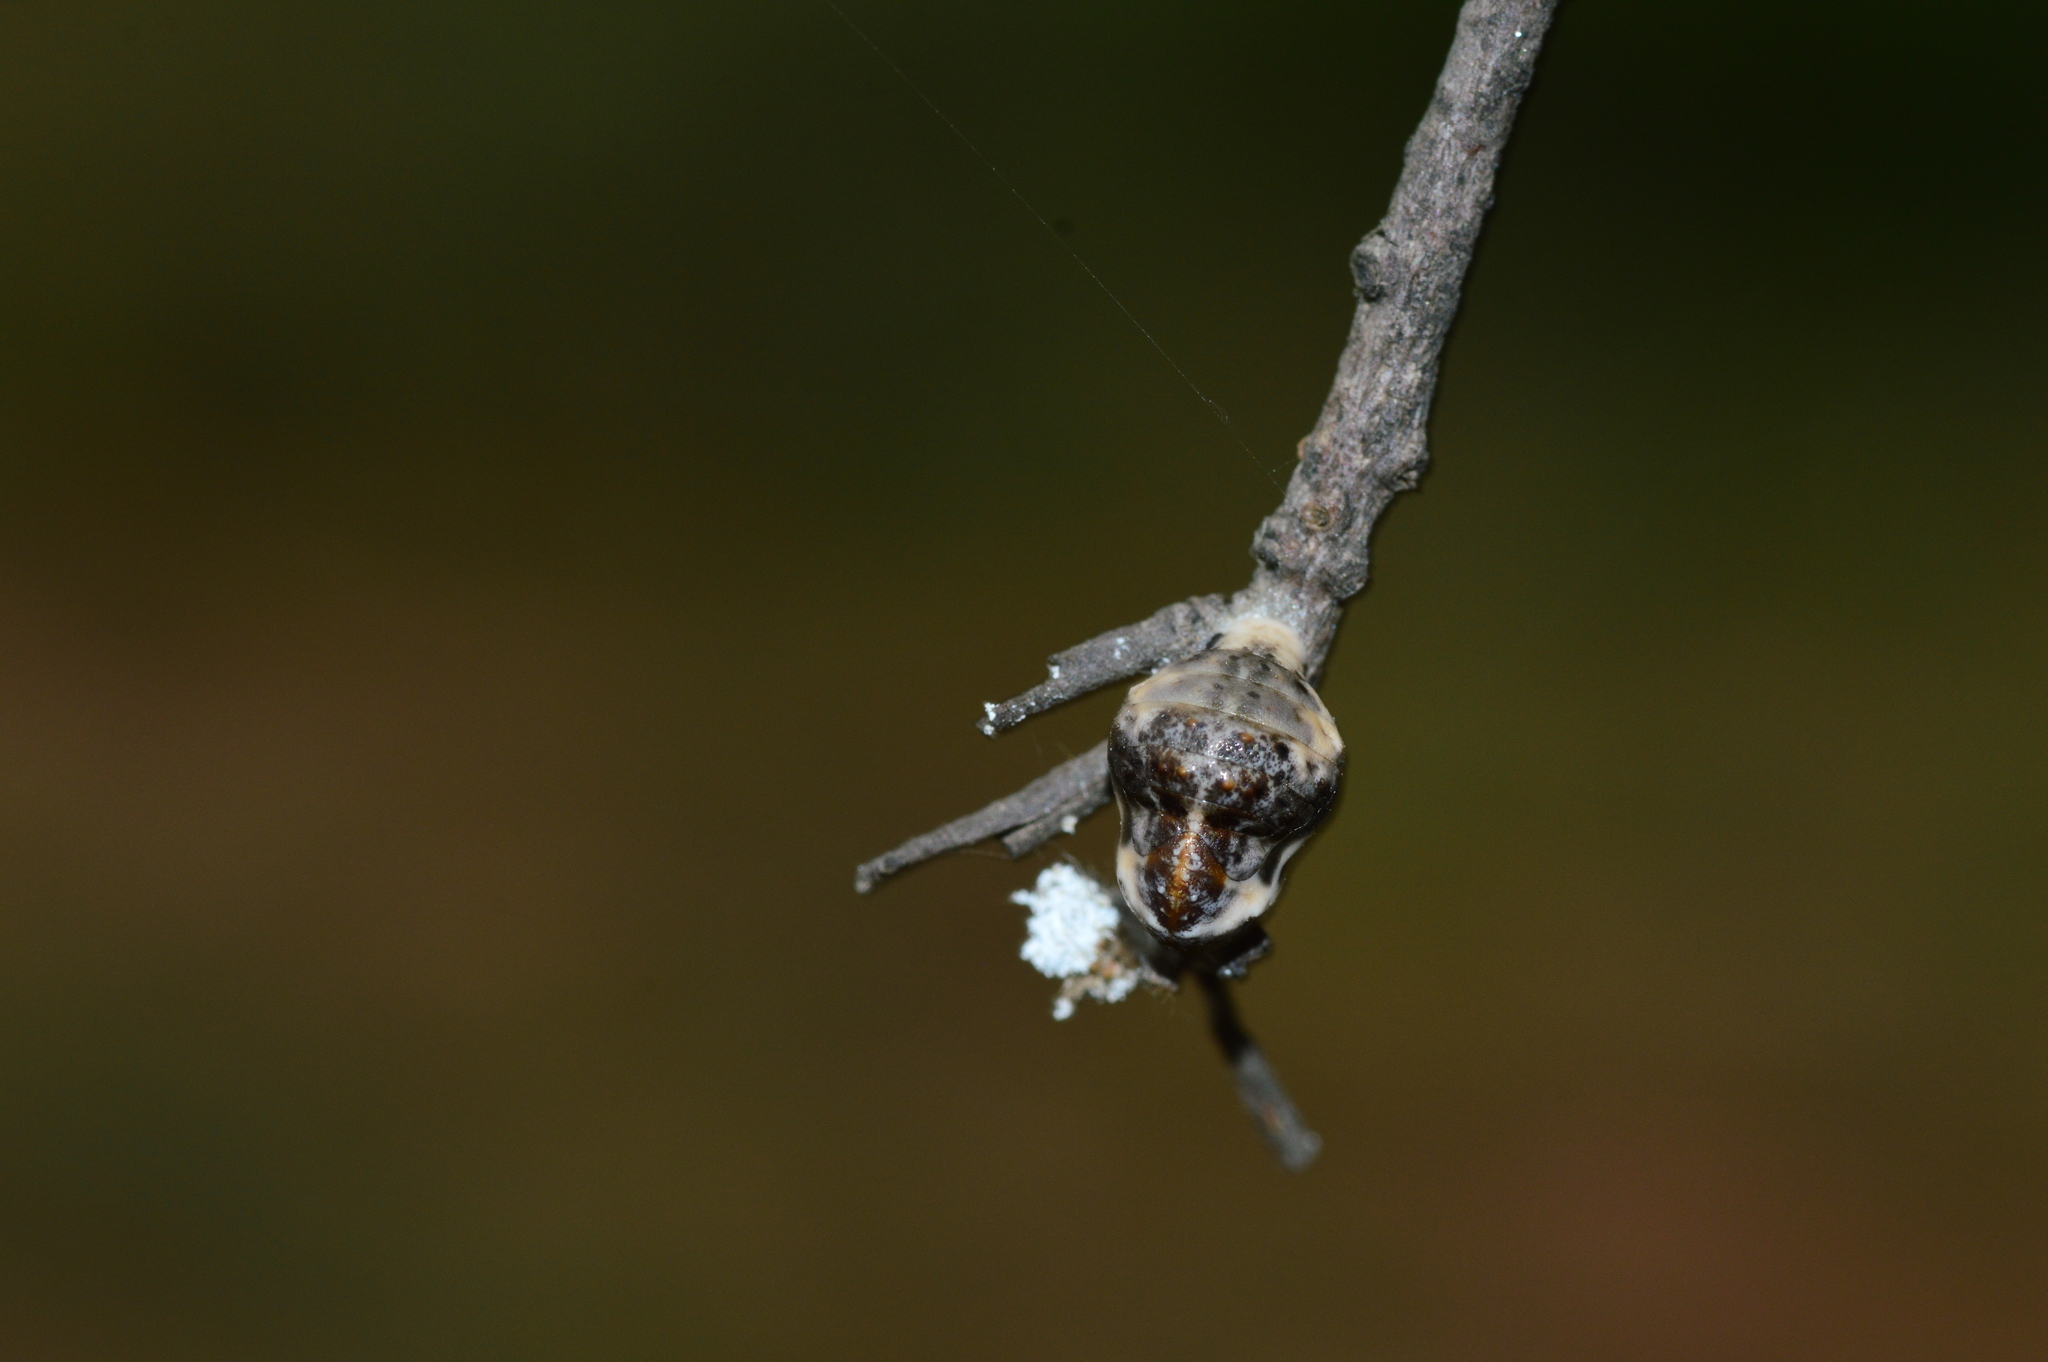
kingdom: Animalia
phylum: Arthropoda
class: Insecta
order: Lepidoptera
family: Lycaenidae
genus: Spalgis
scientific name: Spalgis epius
